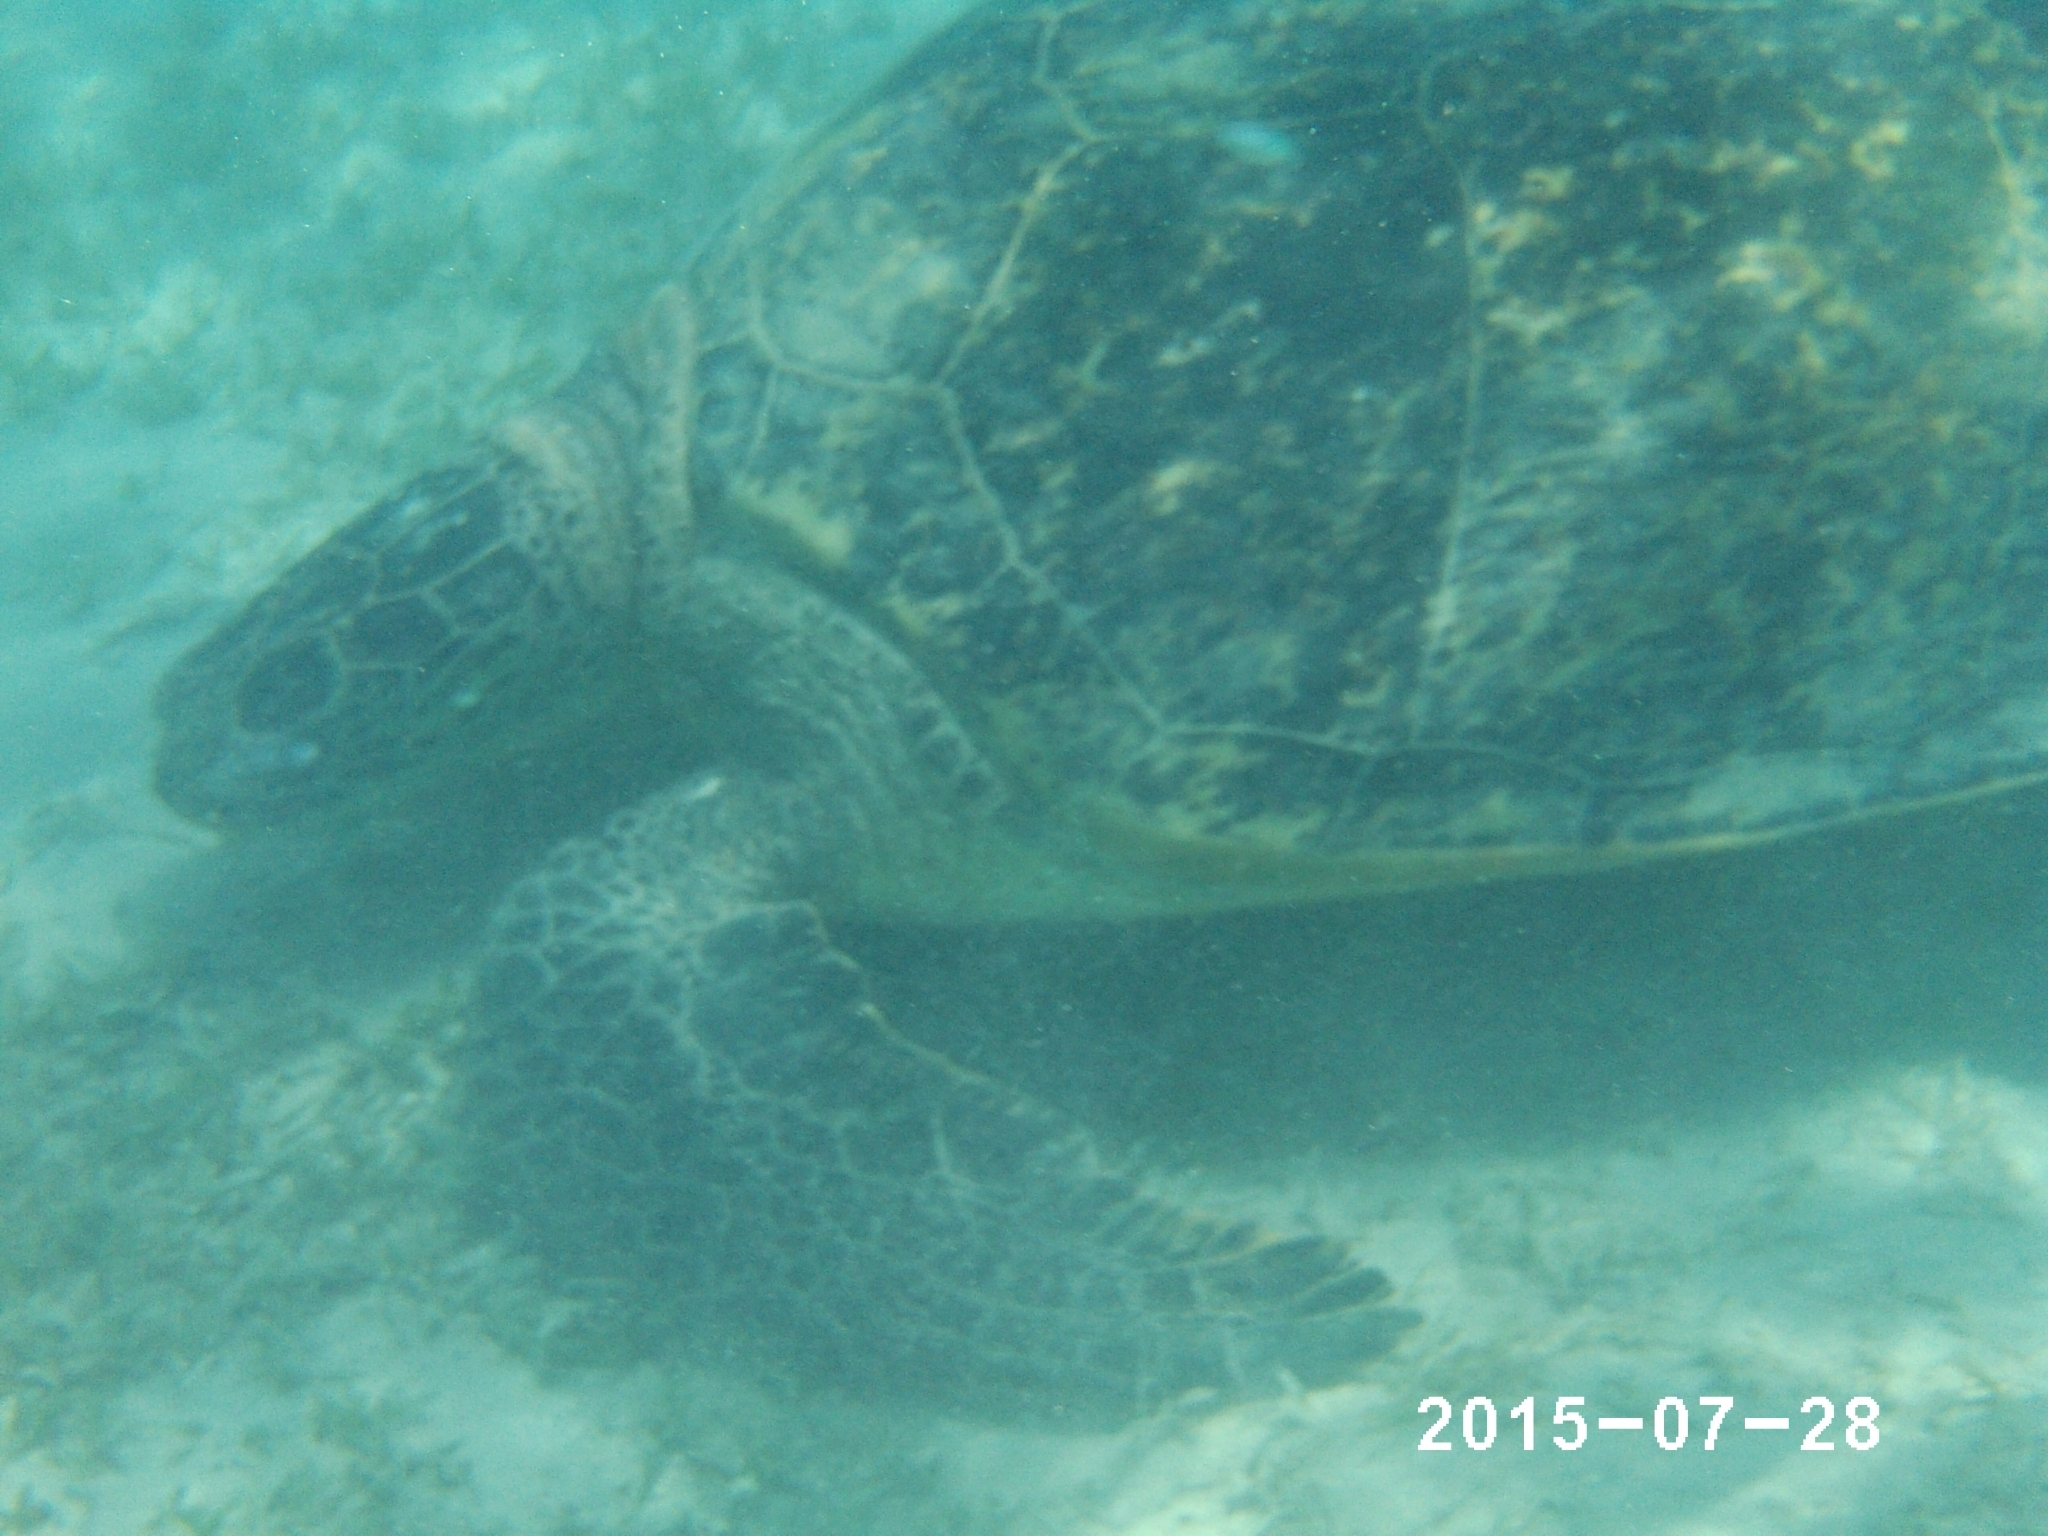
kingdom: Animalia
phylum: Chordata
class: Testudines
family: Cheloniidae
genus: Chelonia
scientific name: Chelonia mydas
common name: Green turtle
